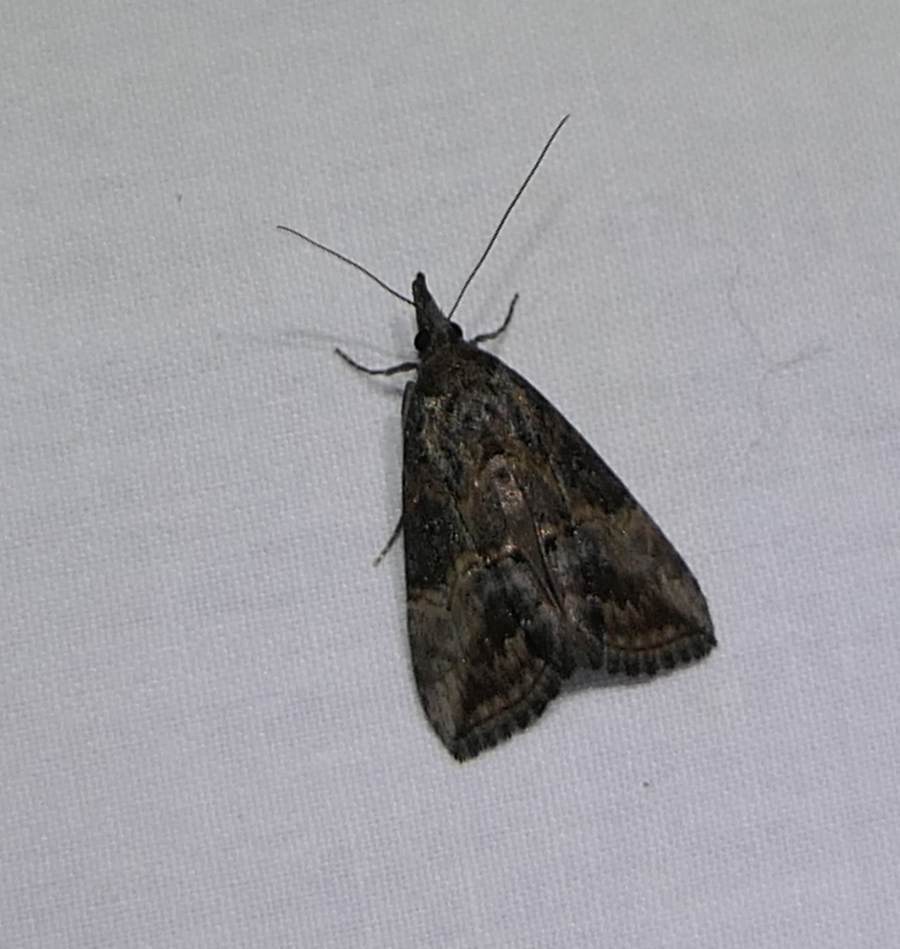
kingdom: Animalia
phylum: Arthropoda
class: Insecta
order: Lepidoptera
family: Erebidae
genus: Hypena
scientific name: Hypena scabra
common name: Green cloverworm
